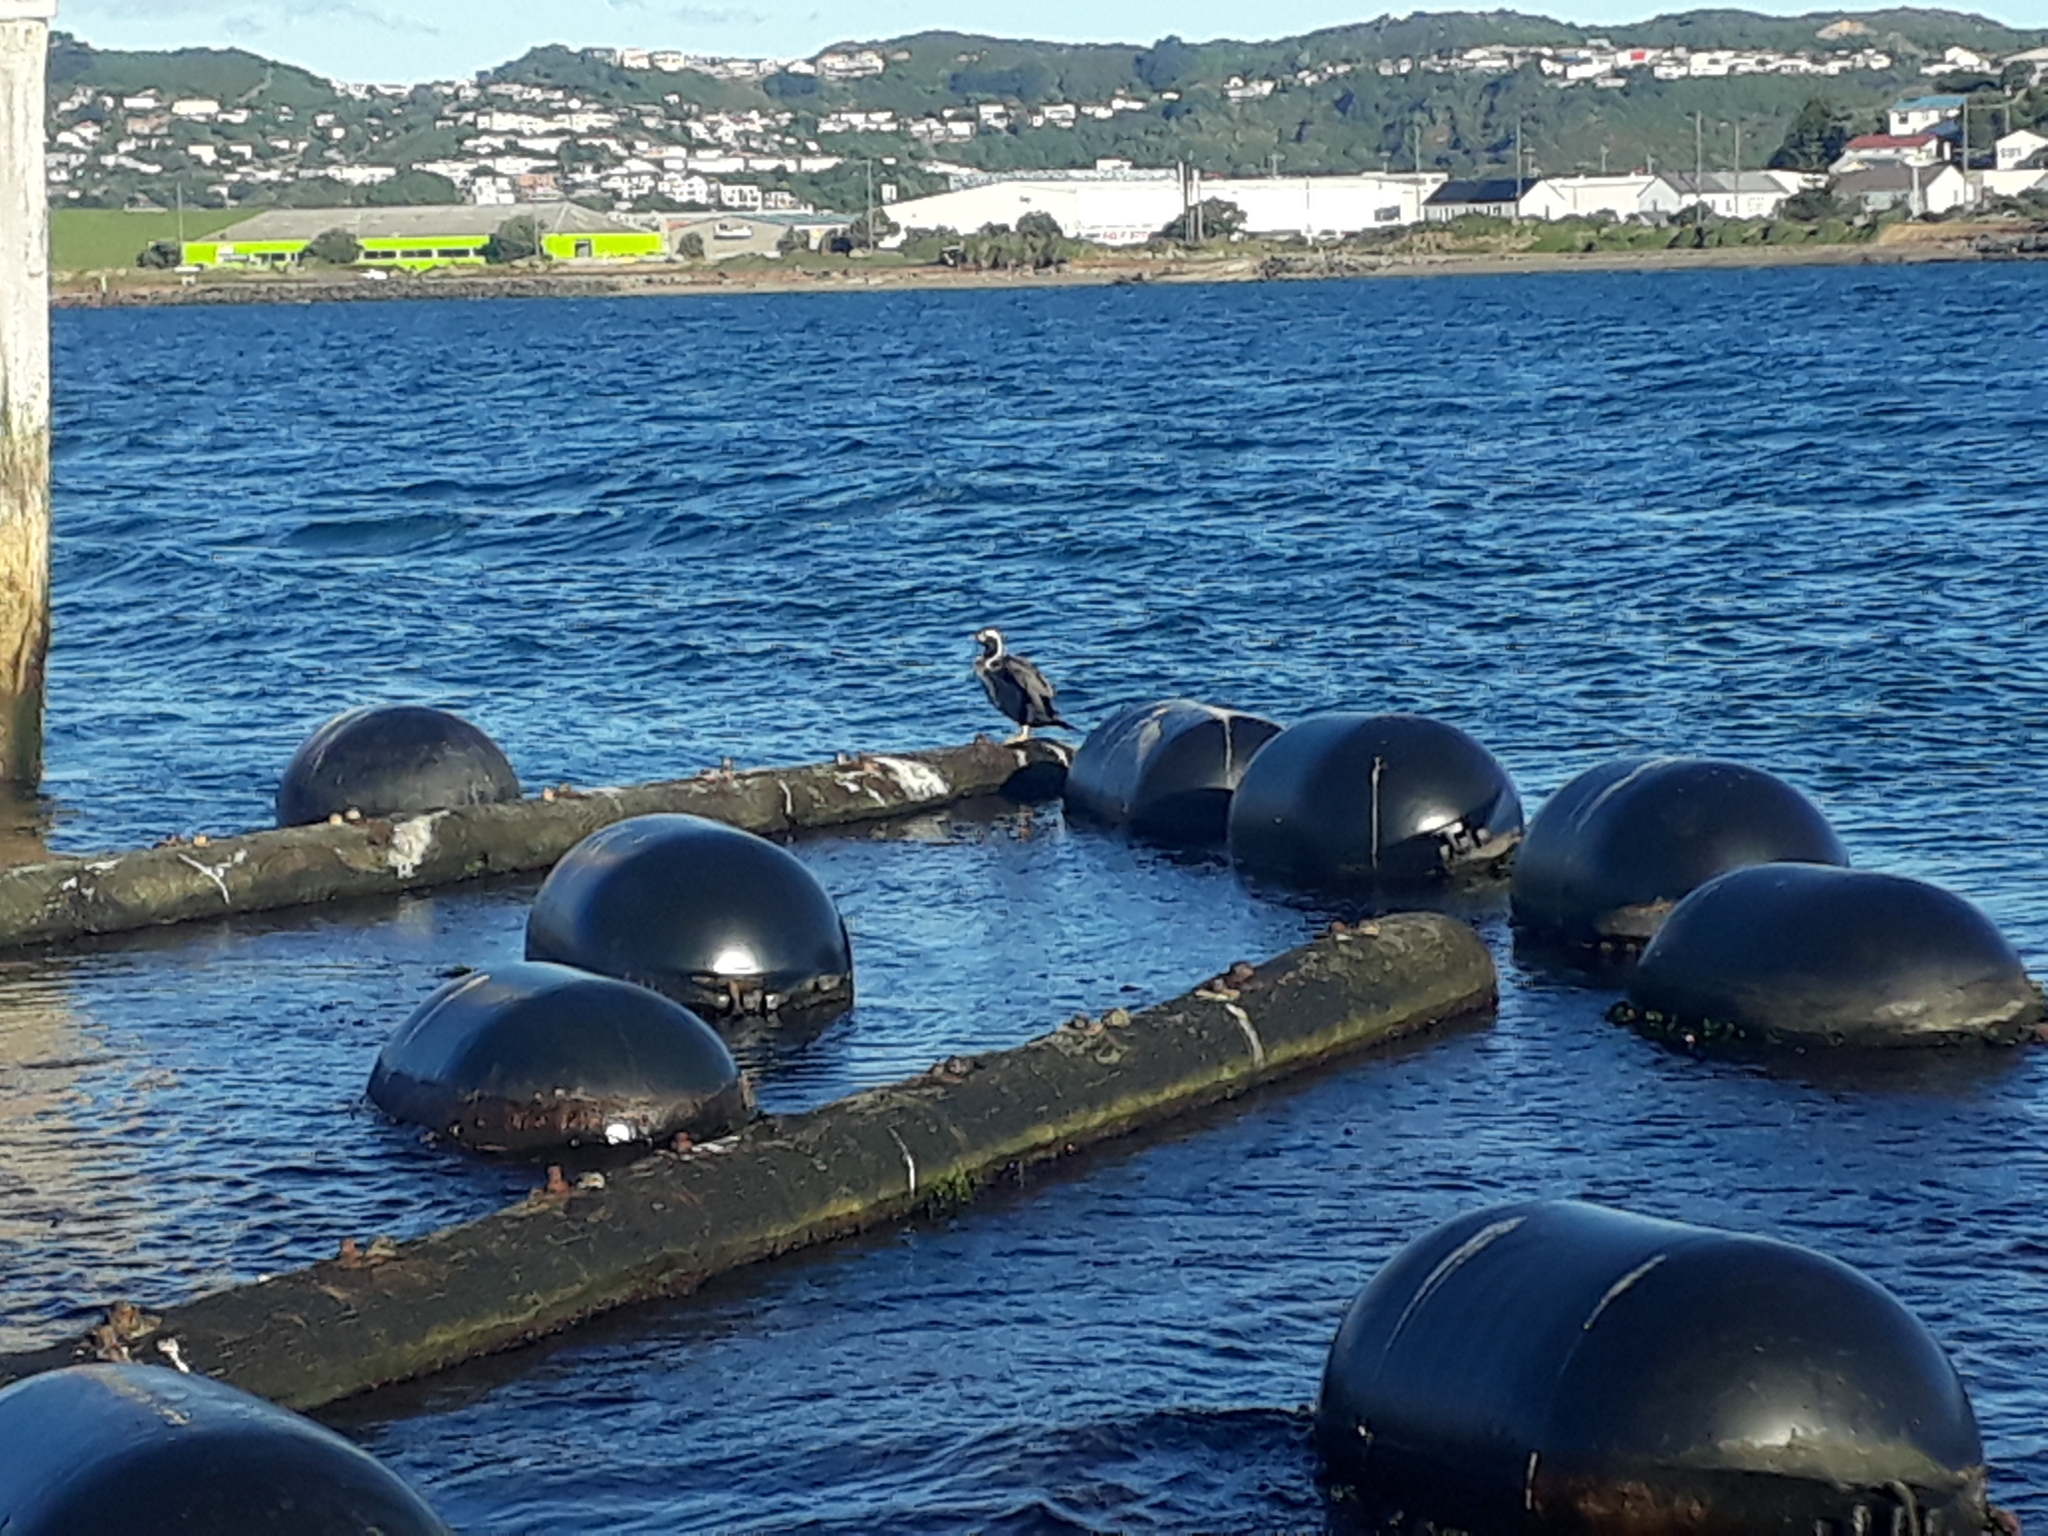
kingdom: Animalia
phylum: Chordata
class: Aves
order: Suliformes
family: Phalacrocoracidae
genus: Phalacrocorax
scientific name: Phalacrocorax punctatus
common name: Spotted shag
